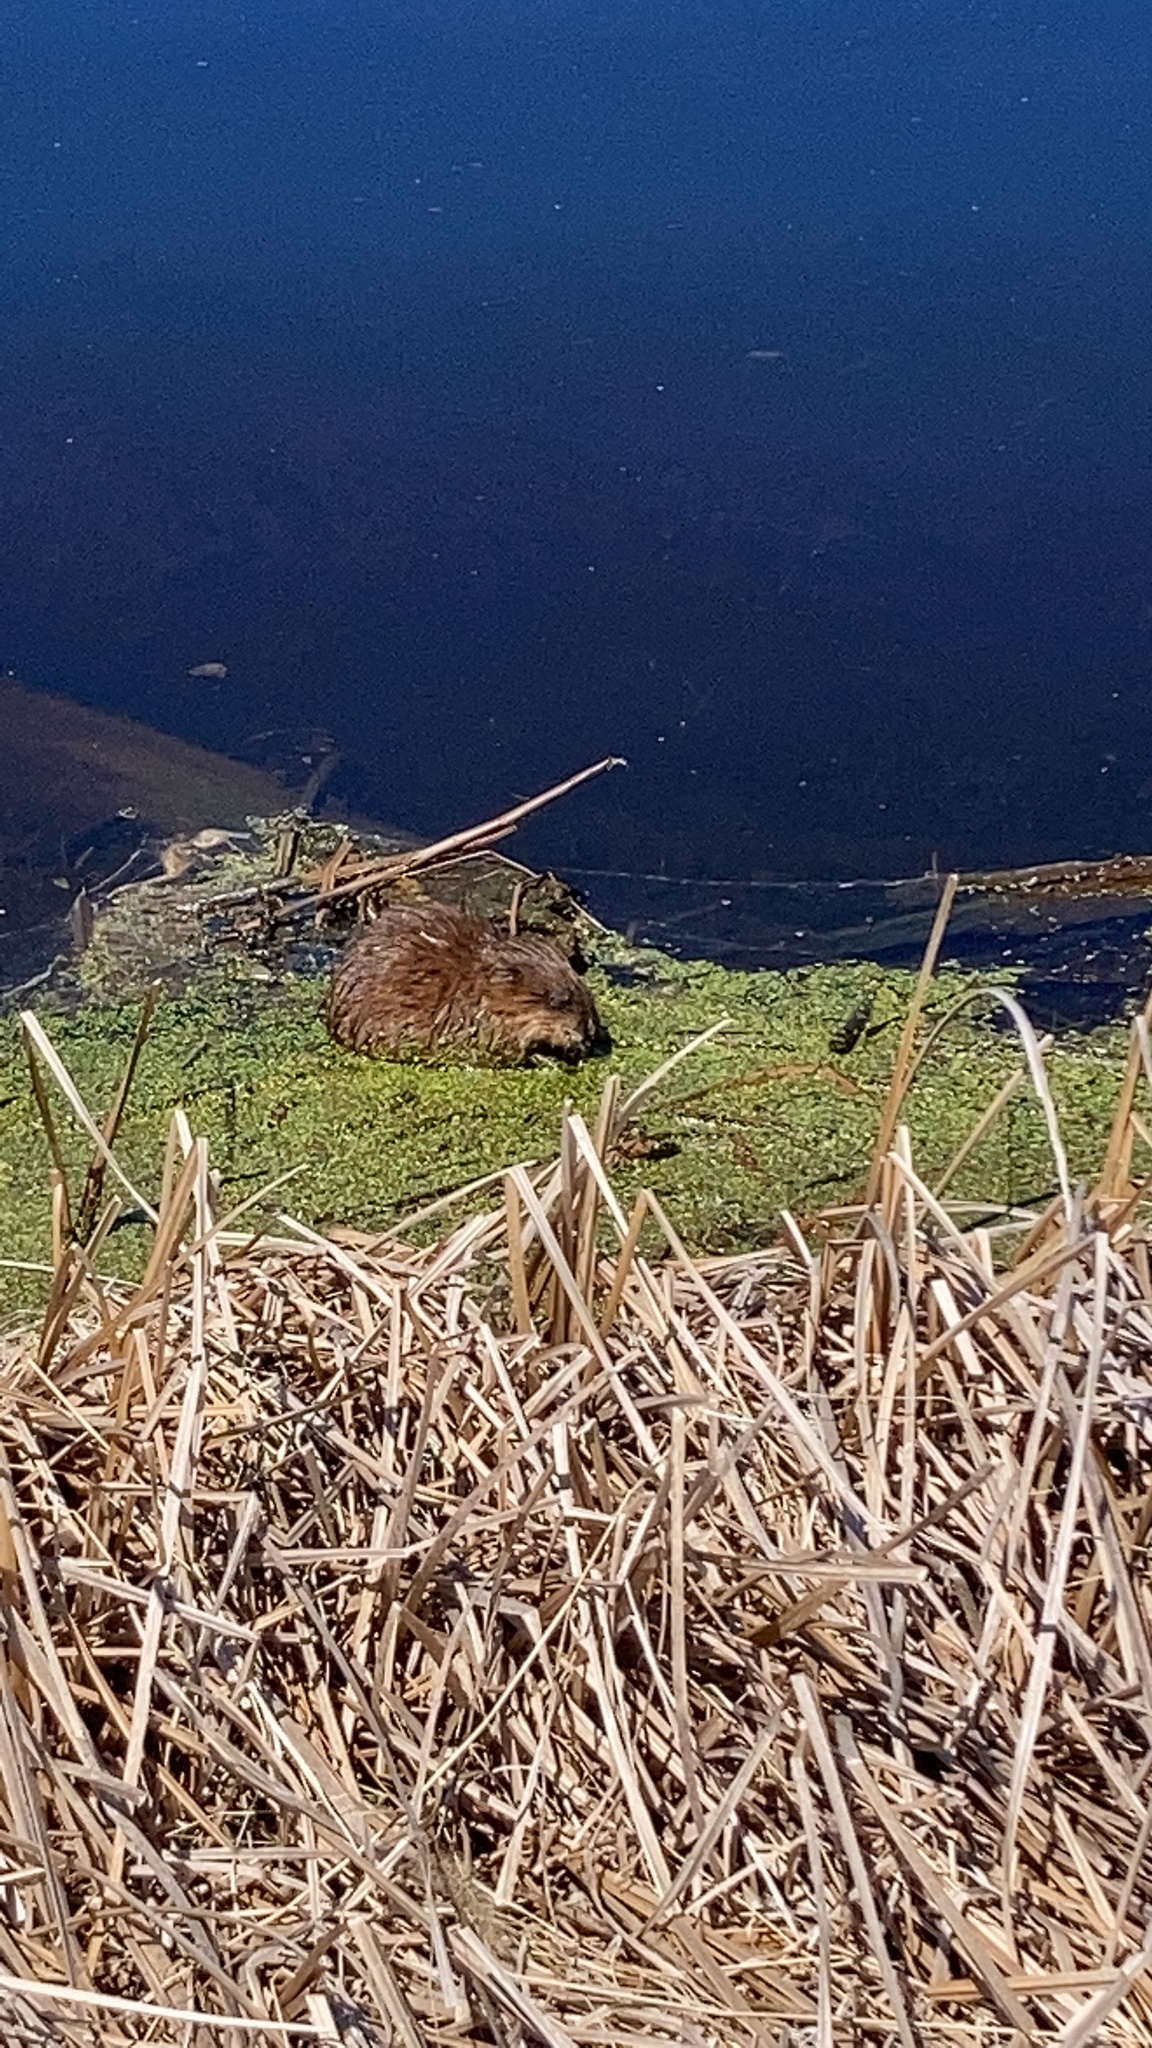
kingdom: Animalia
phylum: Chordata
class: Mammalia
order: Rodentia
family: Cricetidae
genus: Ondatra
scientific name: Ondatra zibethicus
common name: Muskrat
